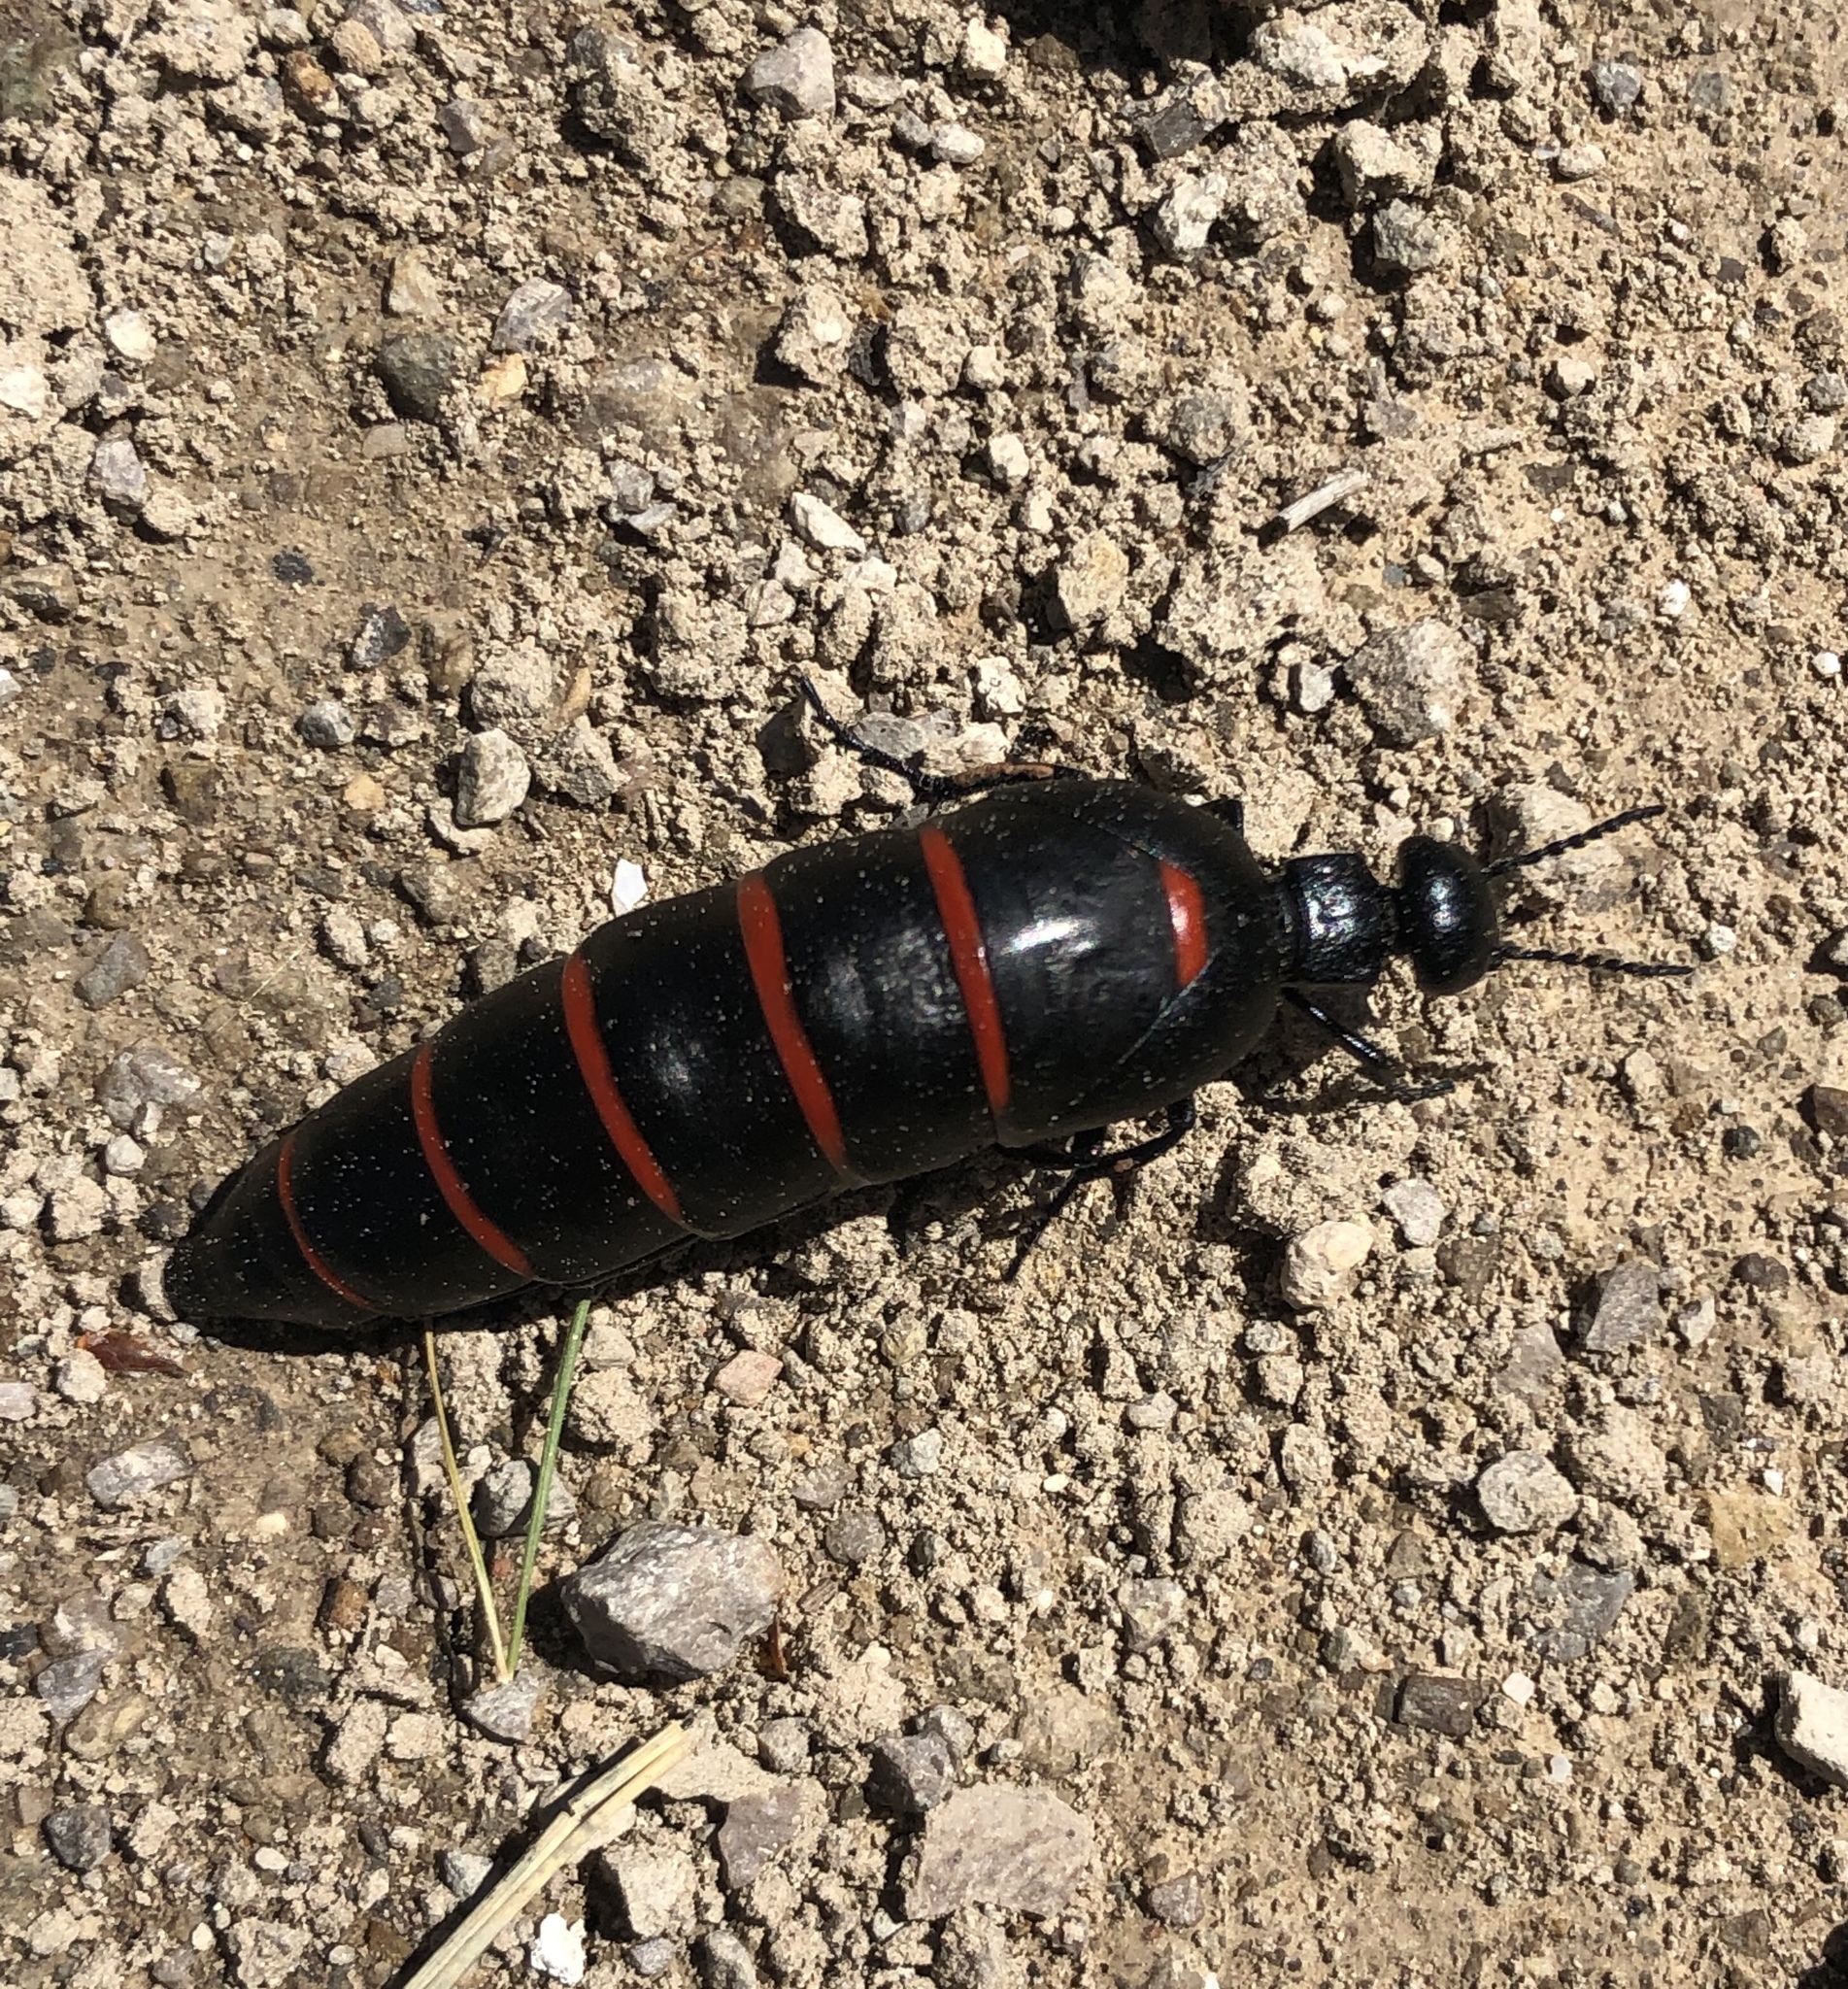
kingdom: Animalia
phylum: Arthropoda
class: Insecta
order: Coleoptera
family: Meloidae
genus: Berberomeloe
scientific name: Berberomeloe majalis
